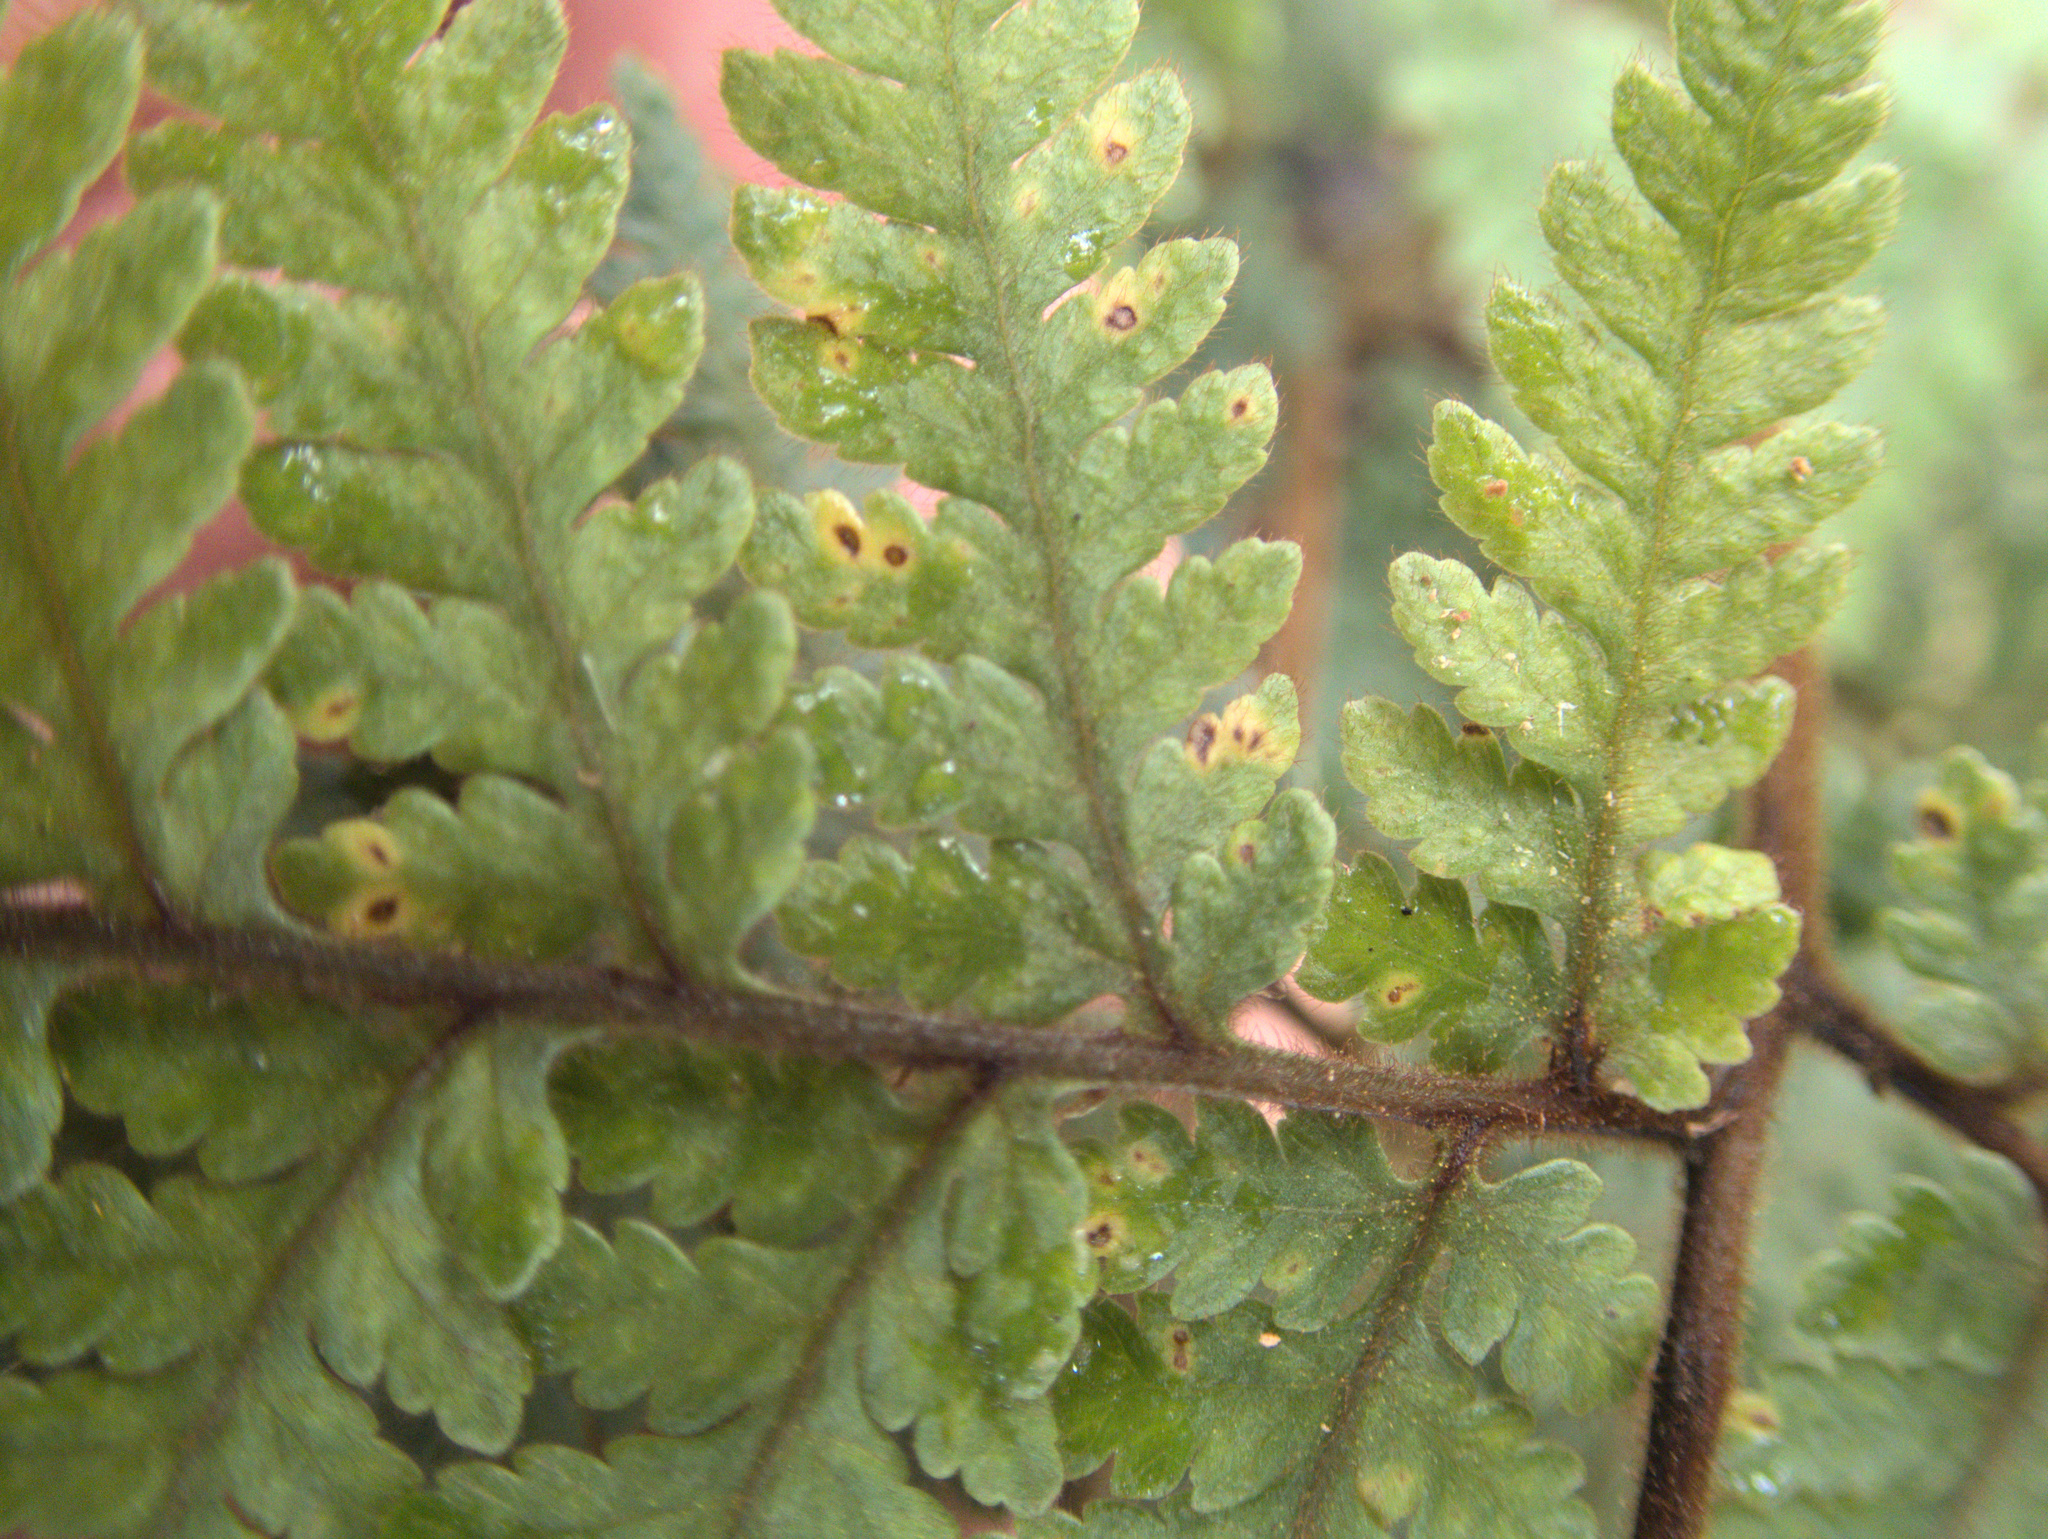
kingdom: Plantae
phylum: Tracheophyta
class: Polypodiopsida
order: Polypodiales
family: Dryopteridaceae
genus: Lastreopsis
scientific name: Lastreopsis velutina
